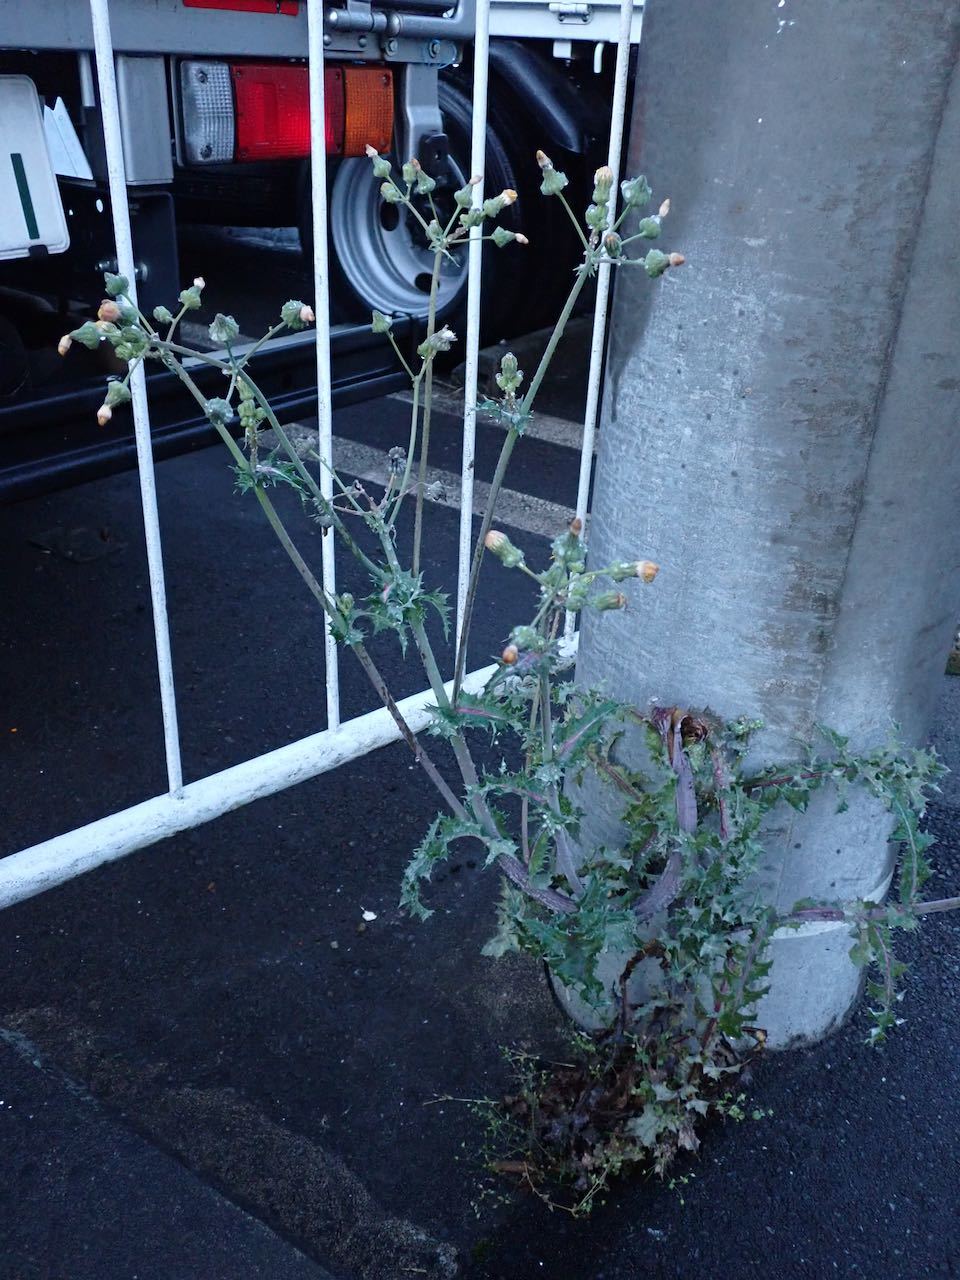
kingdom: Plantae
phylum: Tracheophyta
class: Magnoliopsida
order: Asterales
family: Asteraceae
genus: Sonchus
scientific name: Sonchus asper
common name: Prickly sow-thistle
